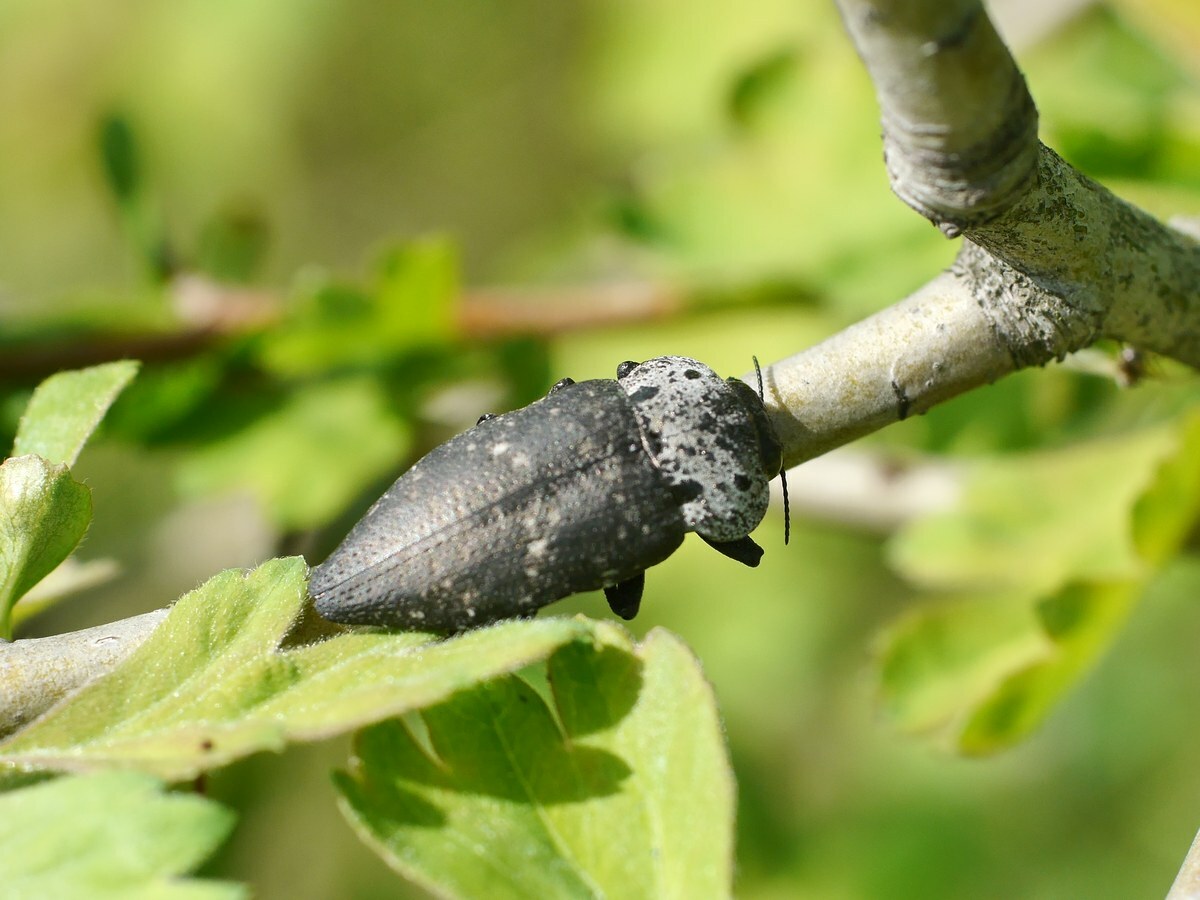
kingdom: Animalia
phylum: Arthropoda
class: Insecta
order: Coleoptera
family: Buprestidae
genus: Capnodis
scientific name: Capnodis tenebrionis
